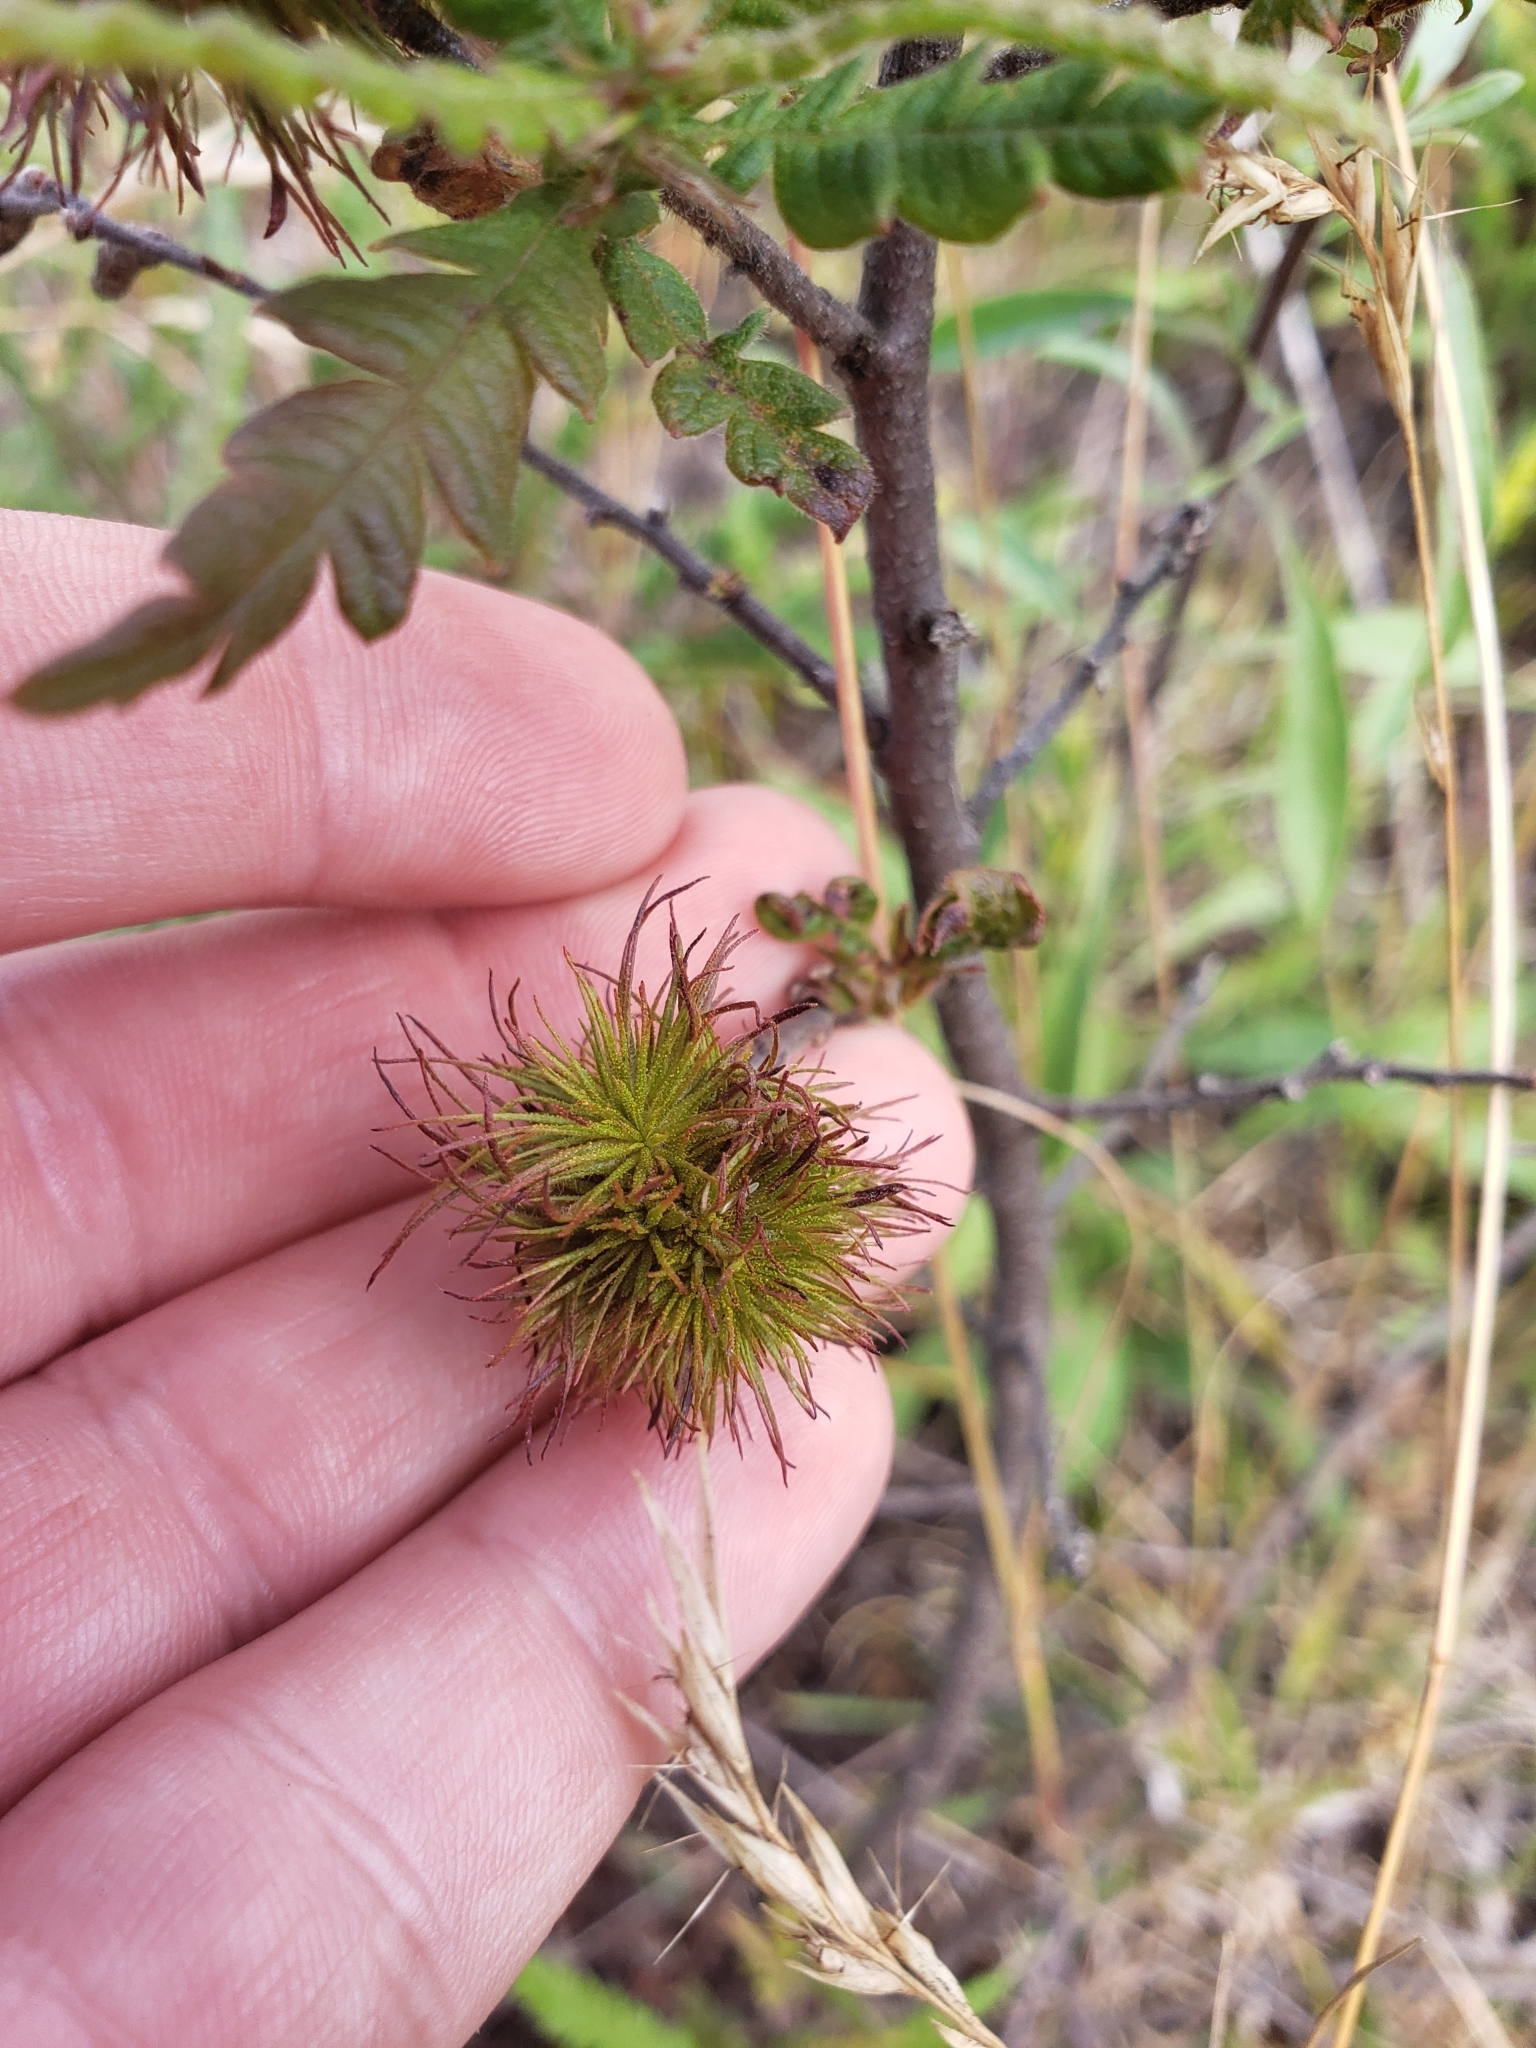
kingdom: Plantae
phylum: Tracheophyta
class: Magnoliopsida
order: Fagales
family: Myricaceae
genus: Comptonia
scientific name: Comptonia peregrina
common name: Sweet-fern
